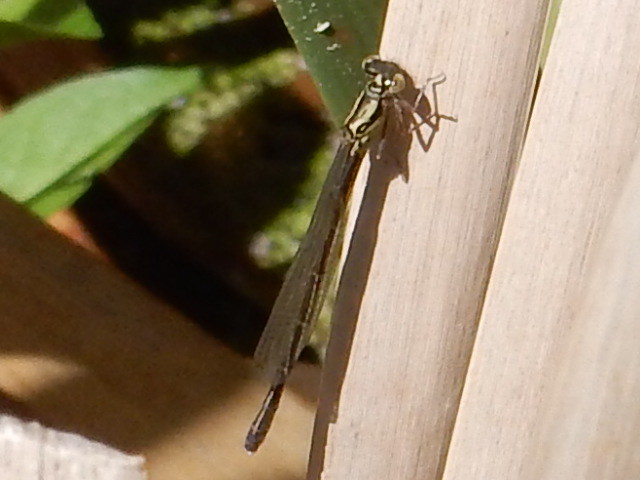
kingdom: Animalia
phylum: Arthropoda
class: Insecta
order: Odonata
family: Coenagrionidae
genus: Xanthocnemis
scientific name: Xanthocnemis zealandica
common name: Common redcoat damselfly
